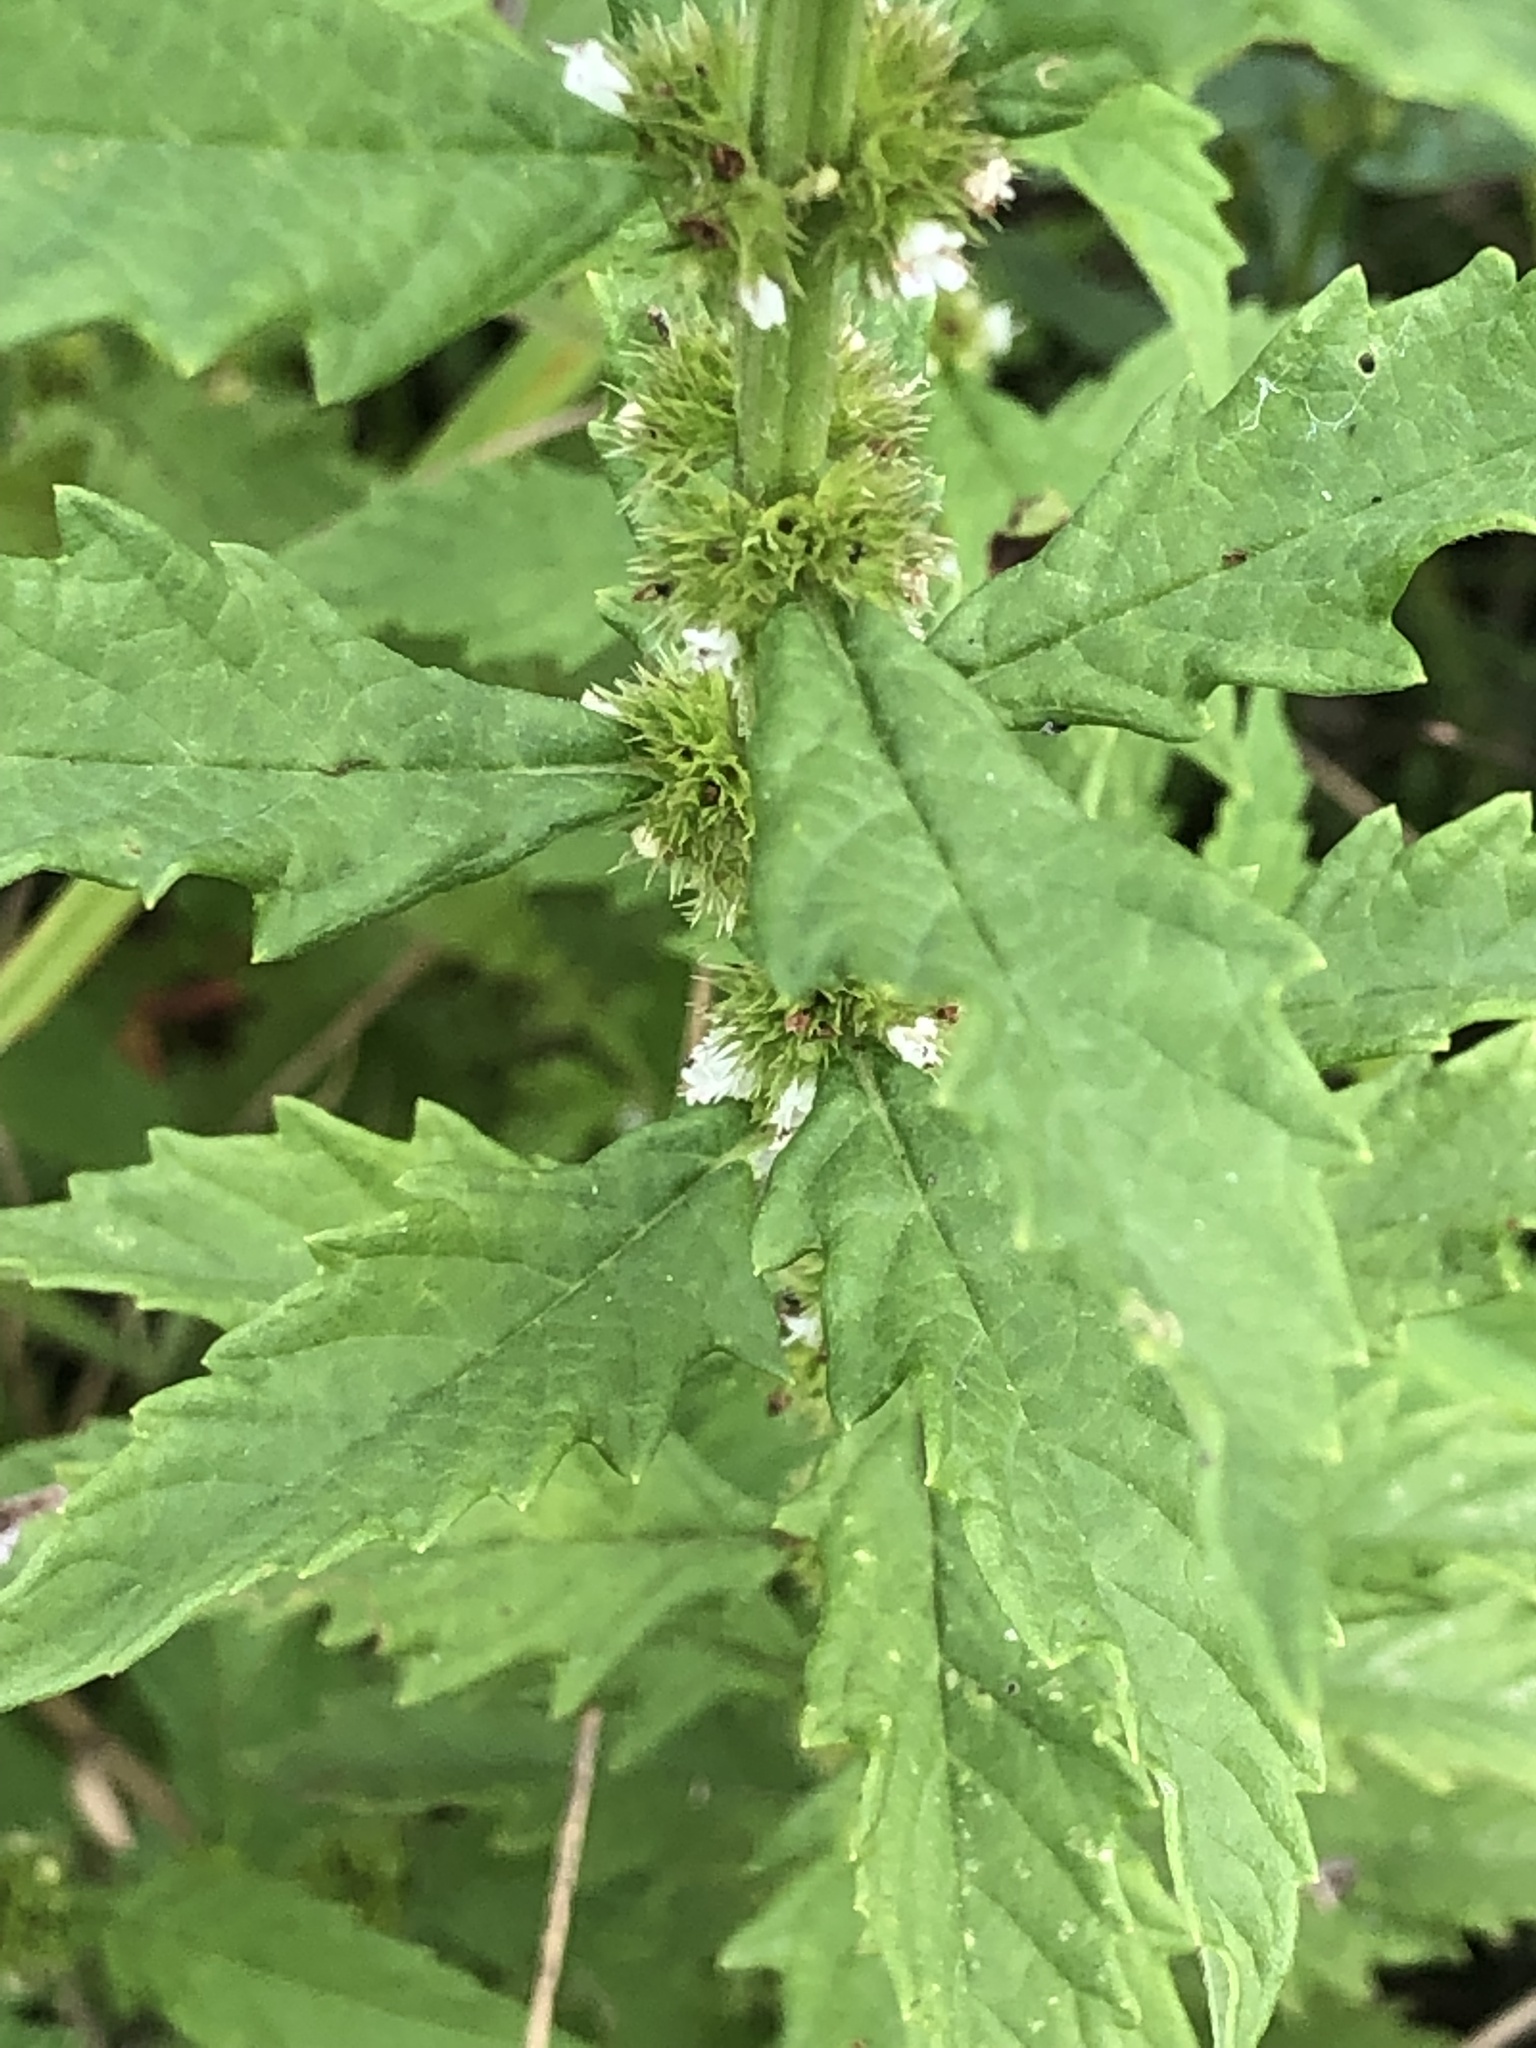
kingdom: Plantae
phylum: Tracheophyta
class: Magnoliopsida
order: Lamiales
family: Lamiaceae
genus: Lycopus
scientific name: Lycopus europaeus
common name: European bugleweed
